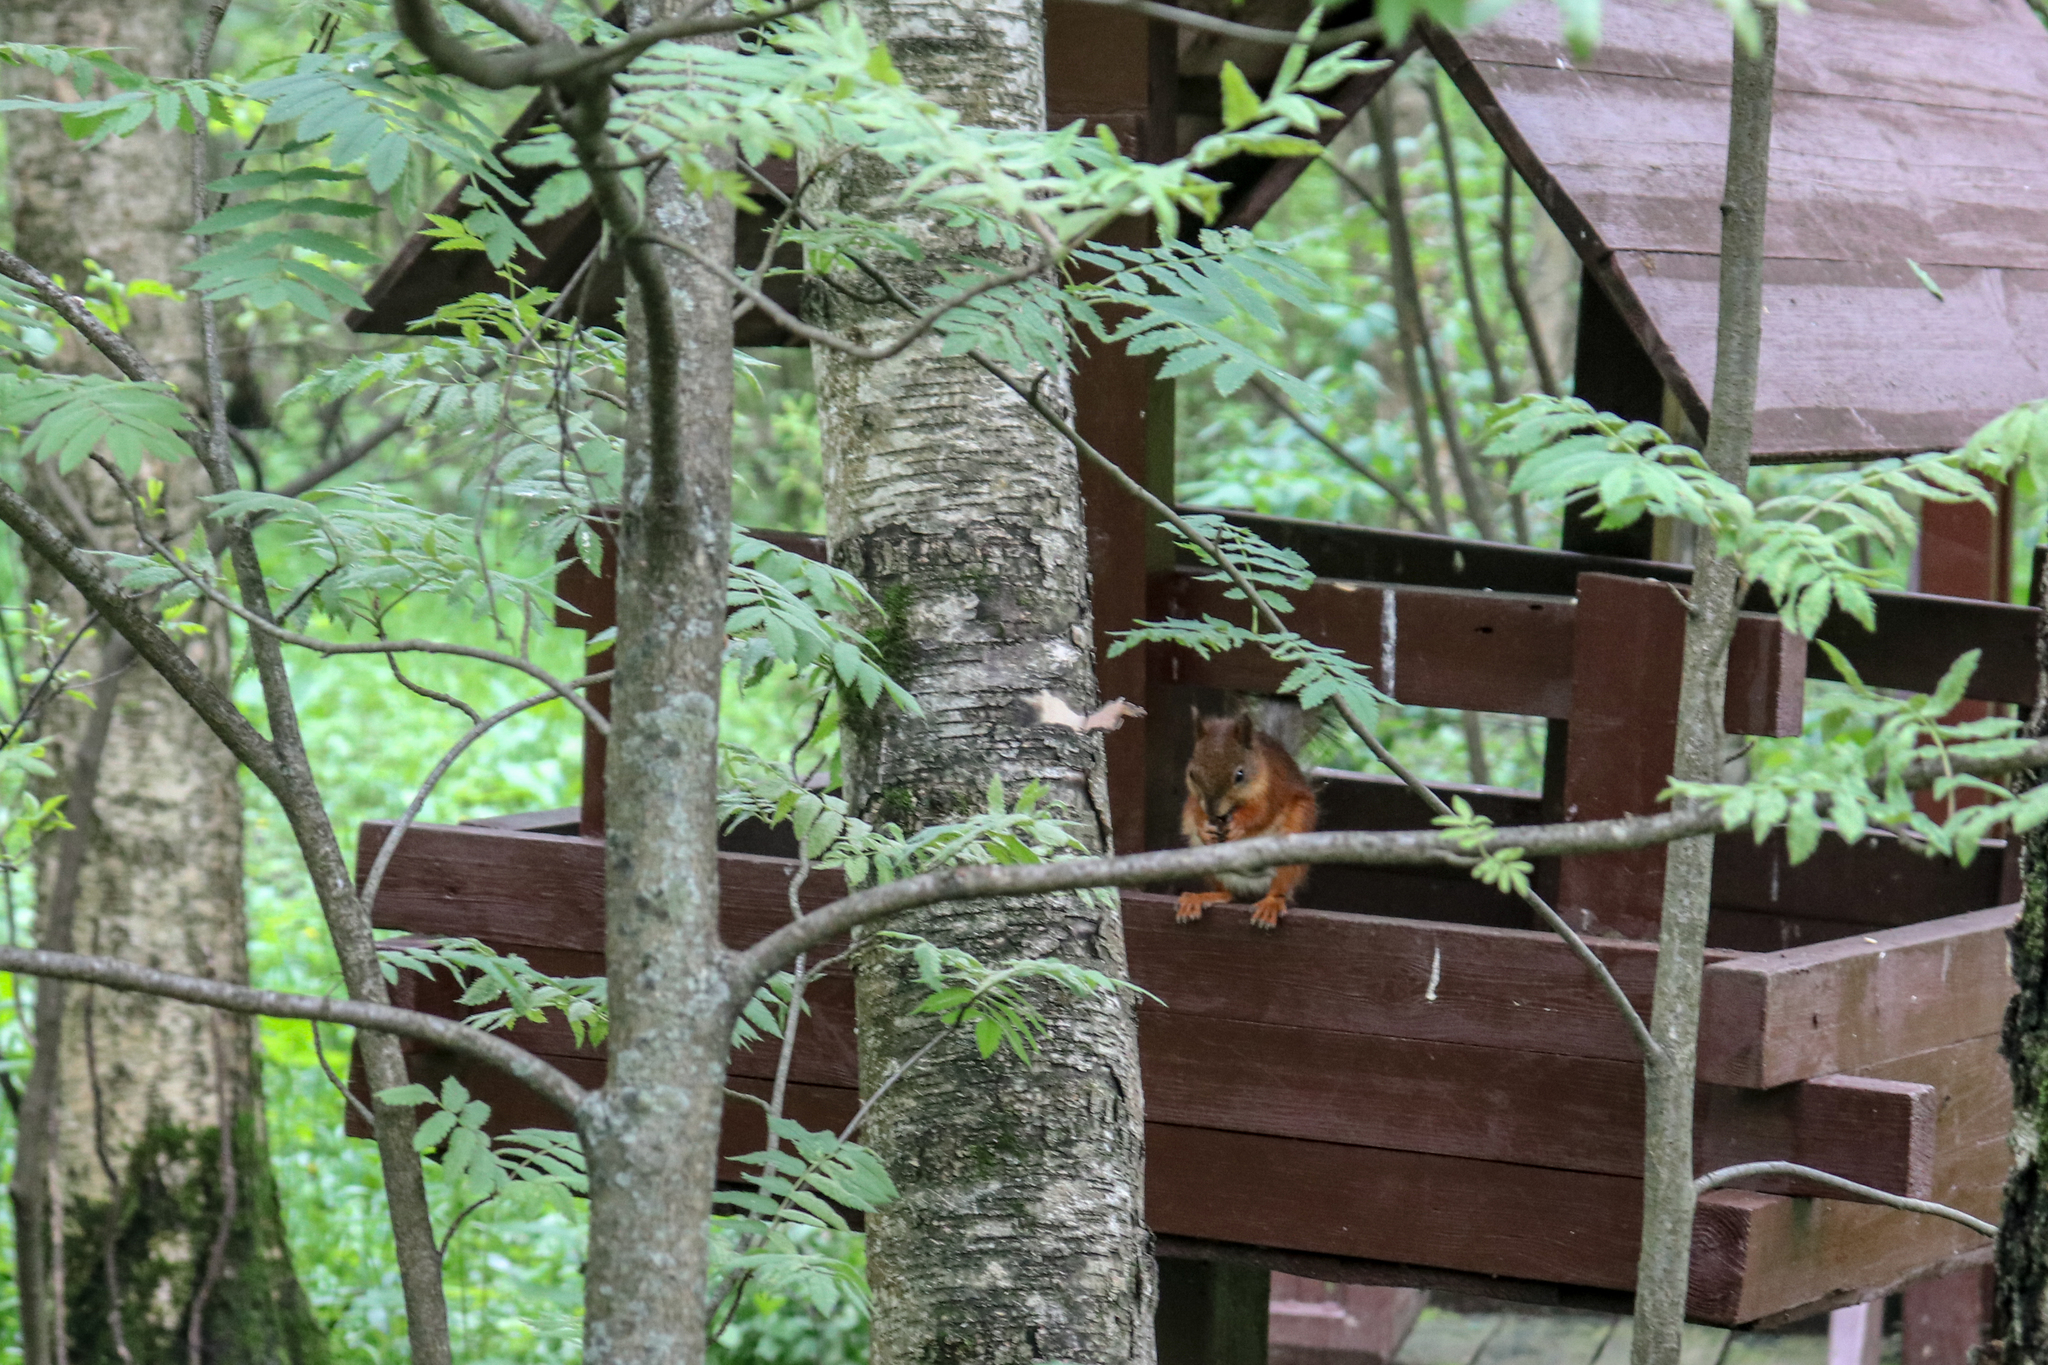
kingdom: Animalia
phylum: Chordata
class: Mammalia
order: Rodentia
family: Sciuridae
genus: Sciurus
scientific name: Sciurus vulgaris
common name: Eurasian red squirrel
